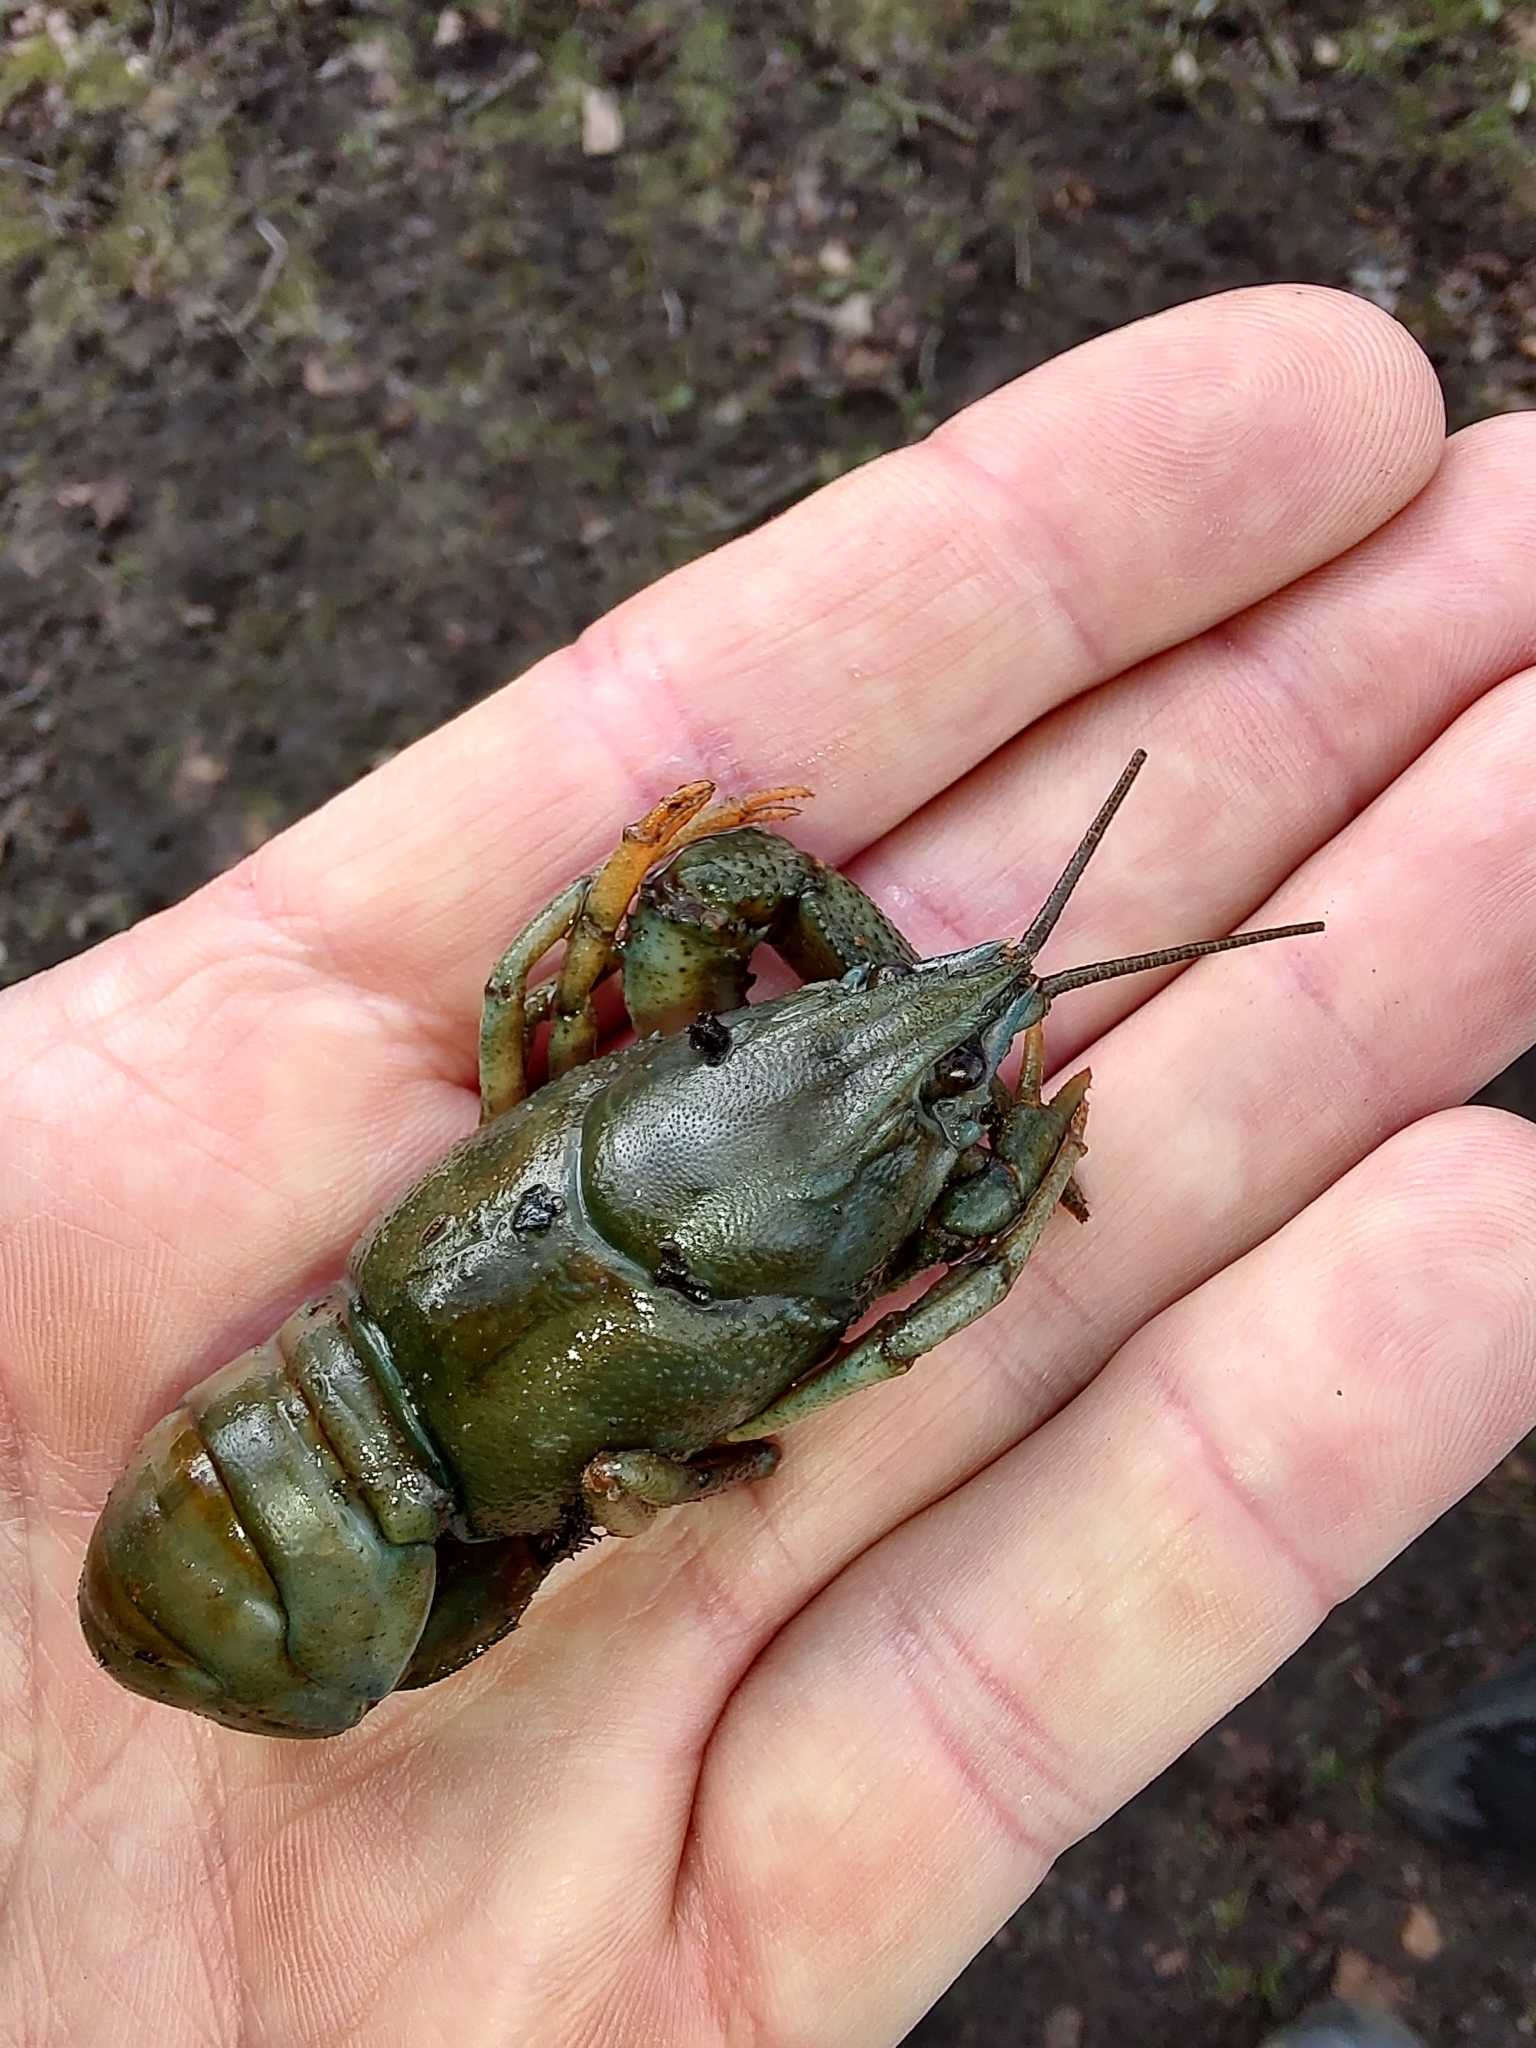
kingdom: Animalia
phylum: Arthropoda
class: Malacostraca
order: Decapoda
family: Astacidae
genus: Astacus
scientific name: Astacus astacus
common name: Noble crayfish
